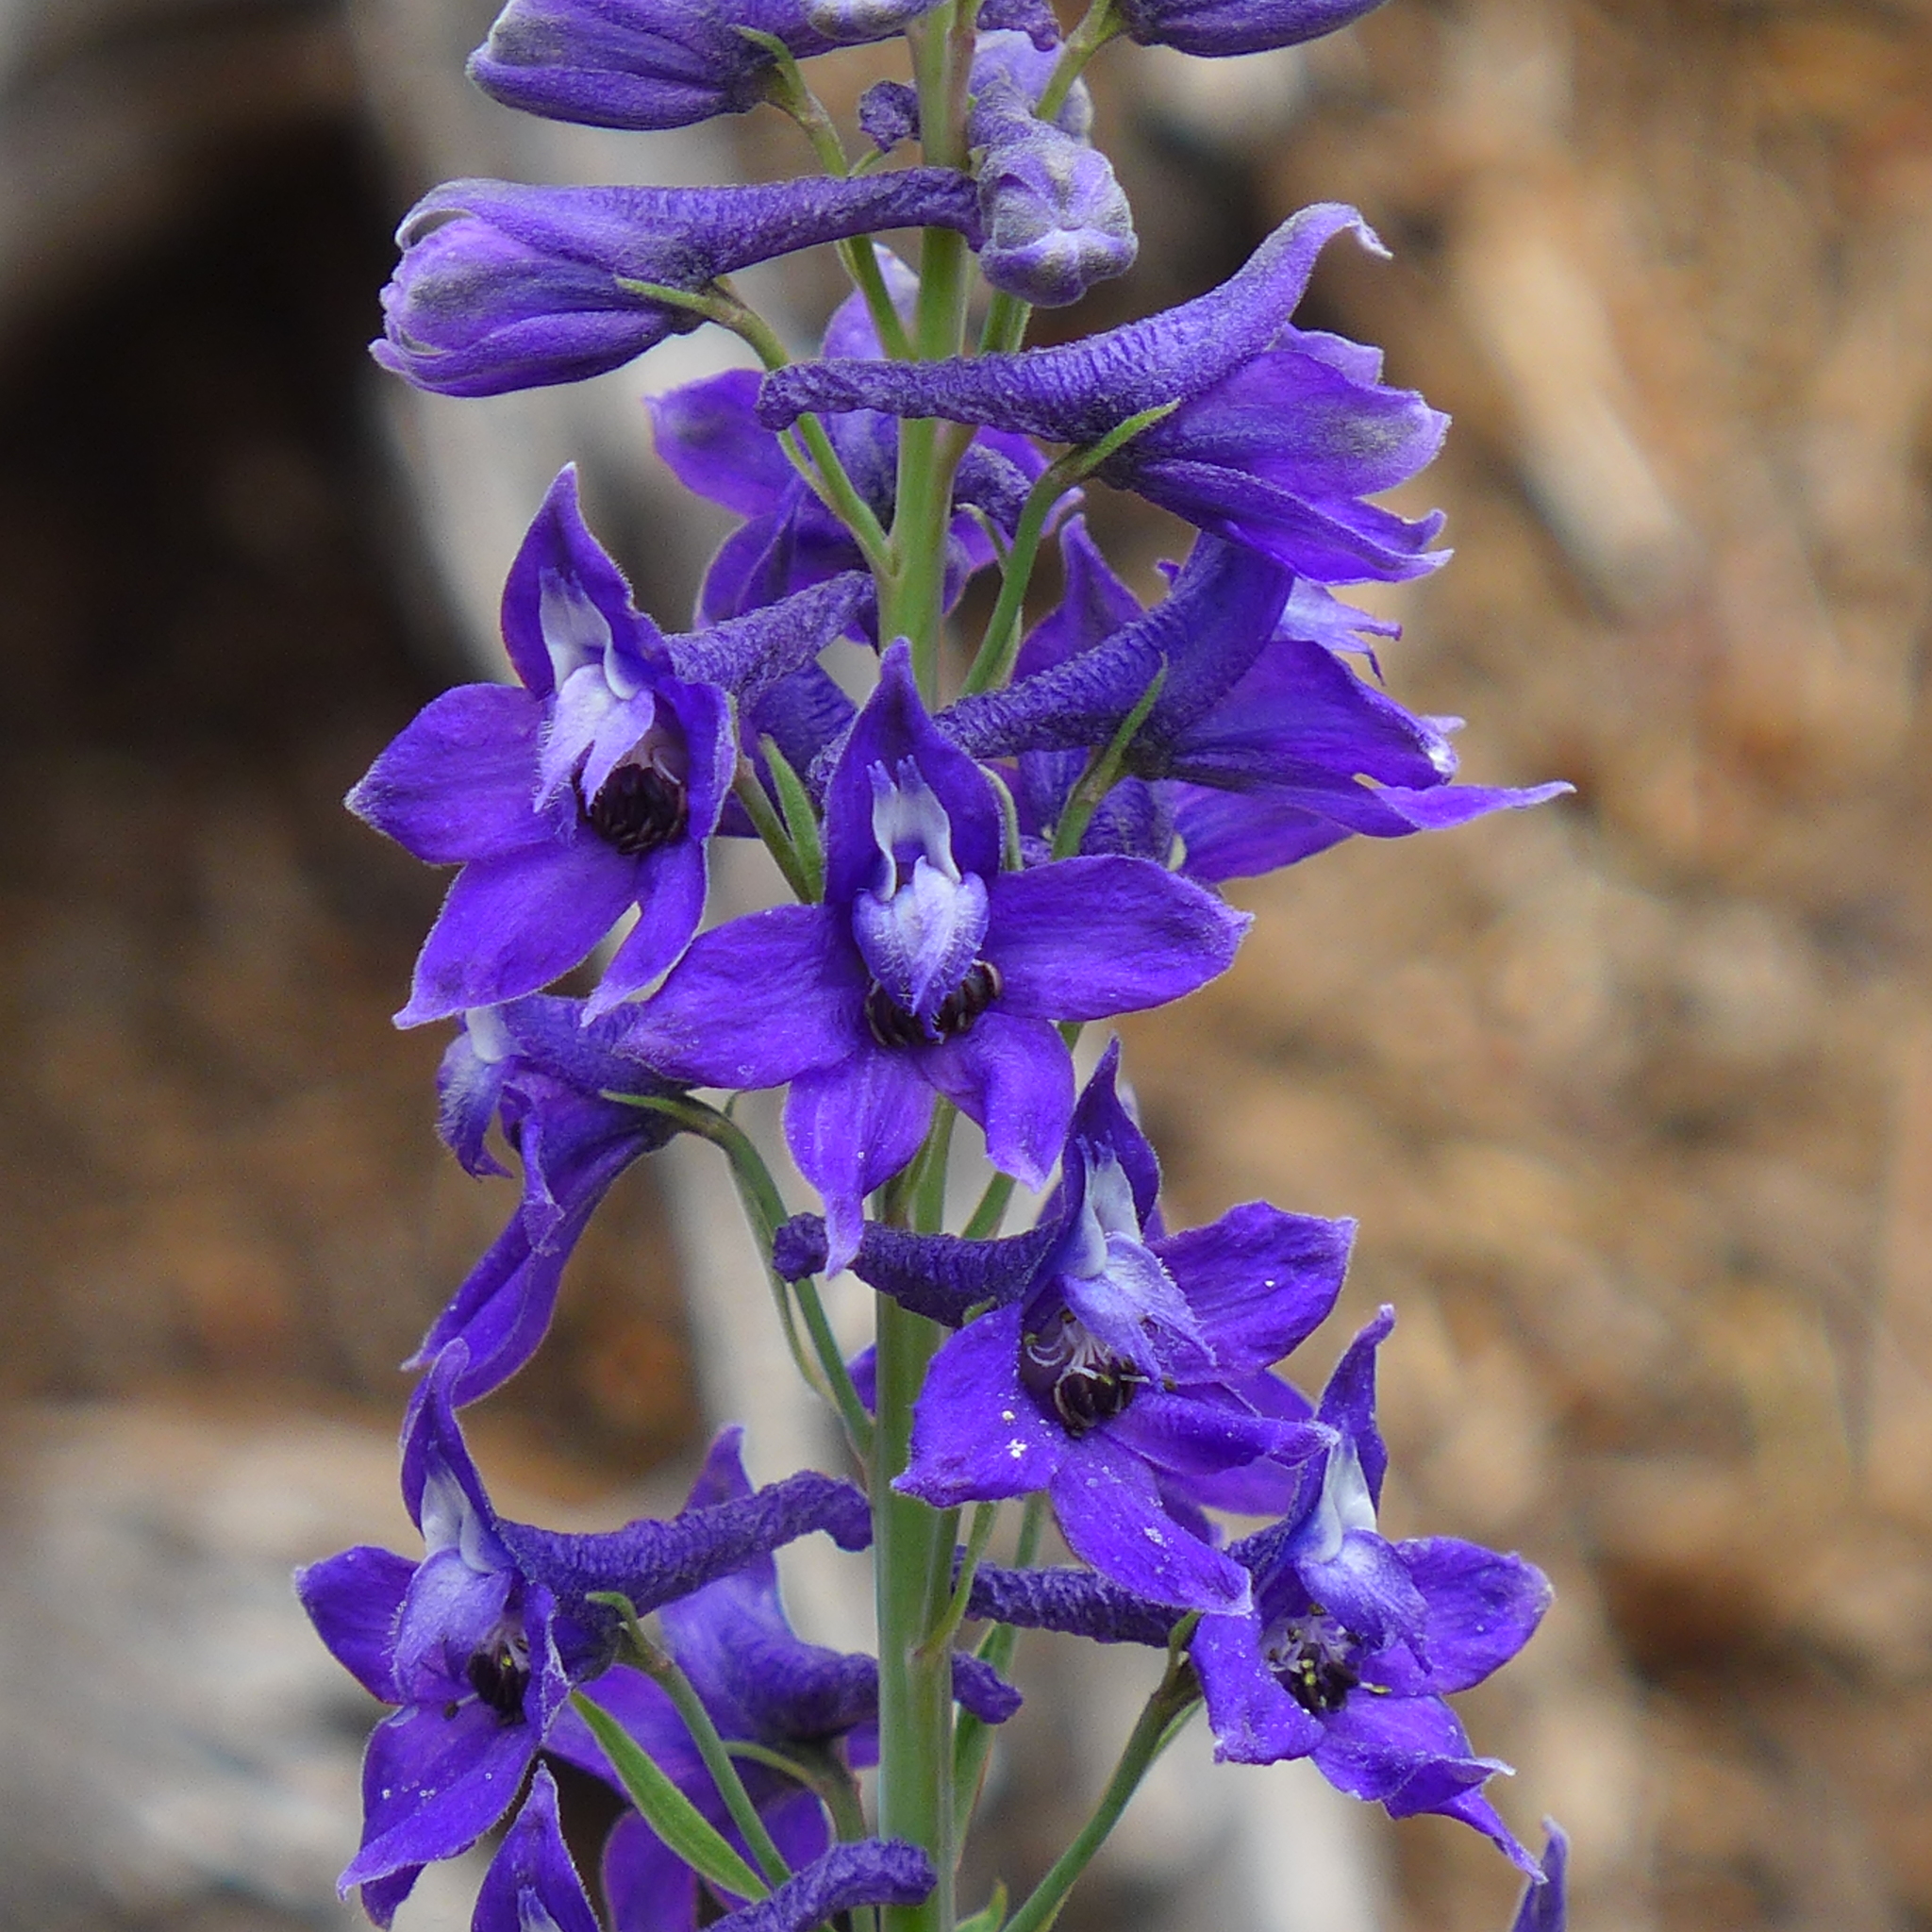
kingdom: Plantae
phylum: Tracheophyta
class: Magnoliopsida
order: Ranunculales
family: Ranunculaceae
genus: Delphinium
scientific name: Delphinium glaucum
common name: Brown's larkspur
